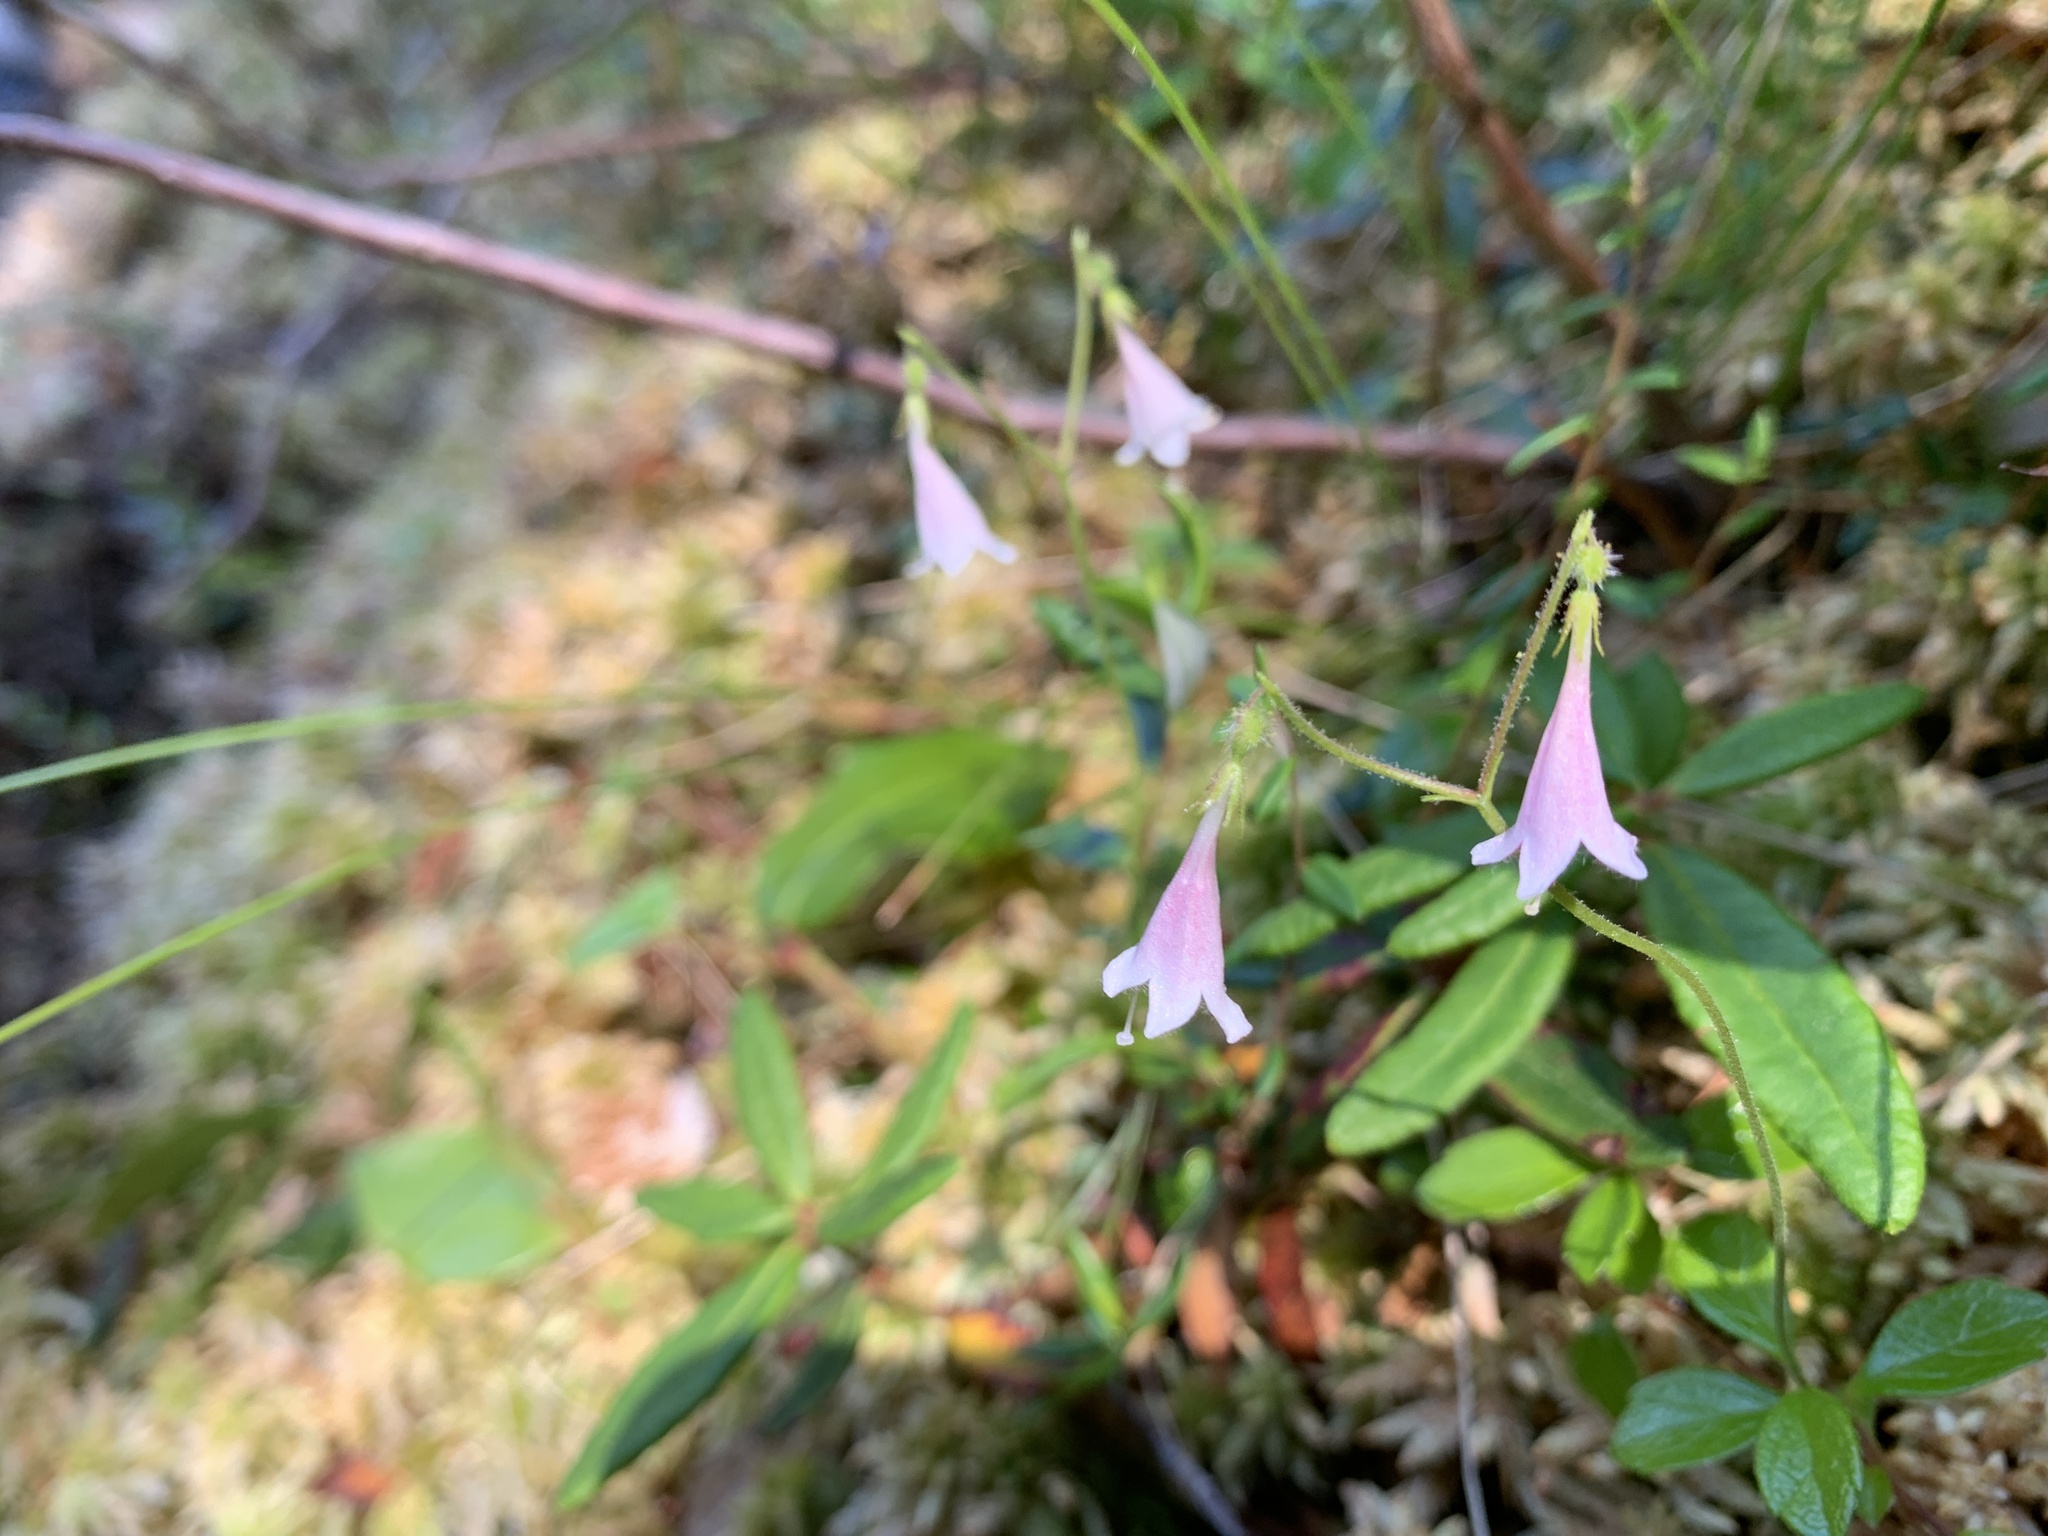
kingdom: Plantae
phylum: Tracheophyta
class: Magnoliopsida
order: Dipsacales
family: Caprifoliaceae
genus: Linnaea
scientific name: Linnaea borealis
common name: Twinflower
